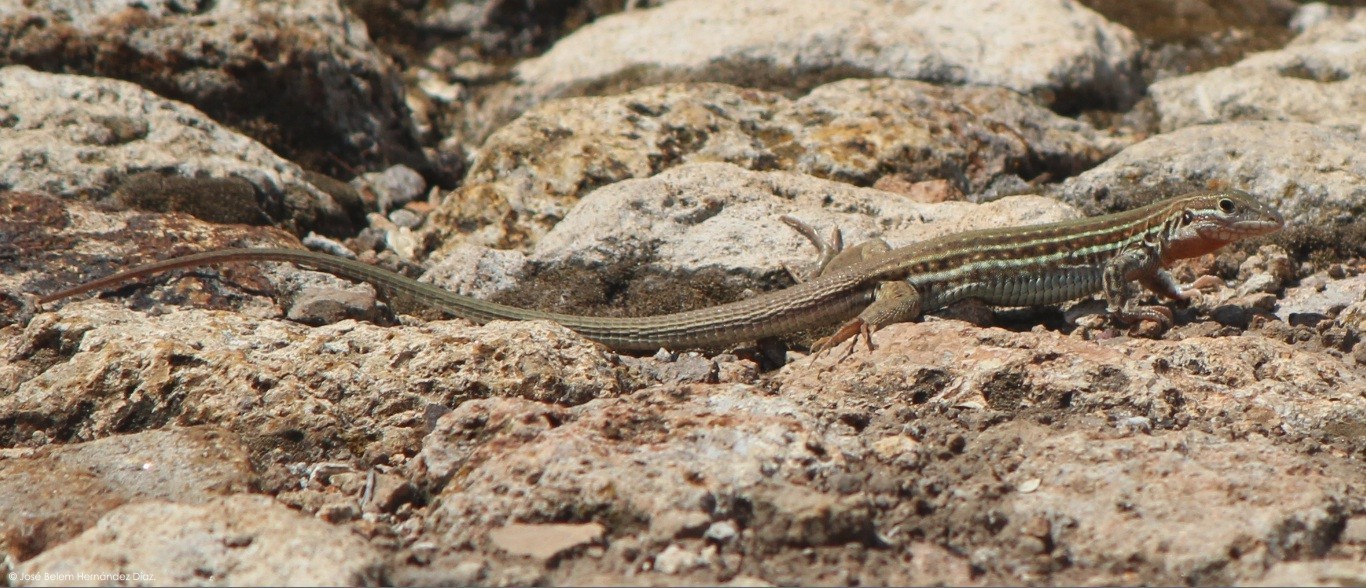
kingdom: Animalia
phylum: Chordata
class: Squamata
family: Teiidae
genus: Aspidoscelis
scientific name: Aspidoscelis gularis
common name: Eastern spotted whiptail
